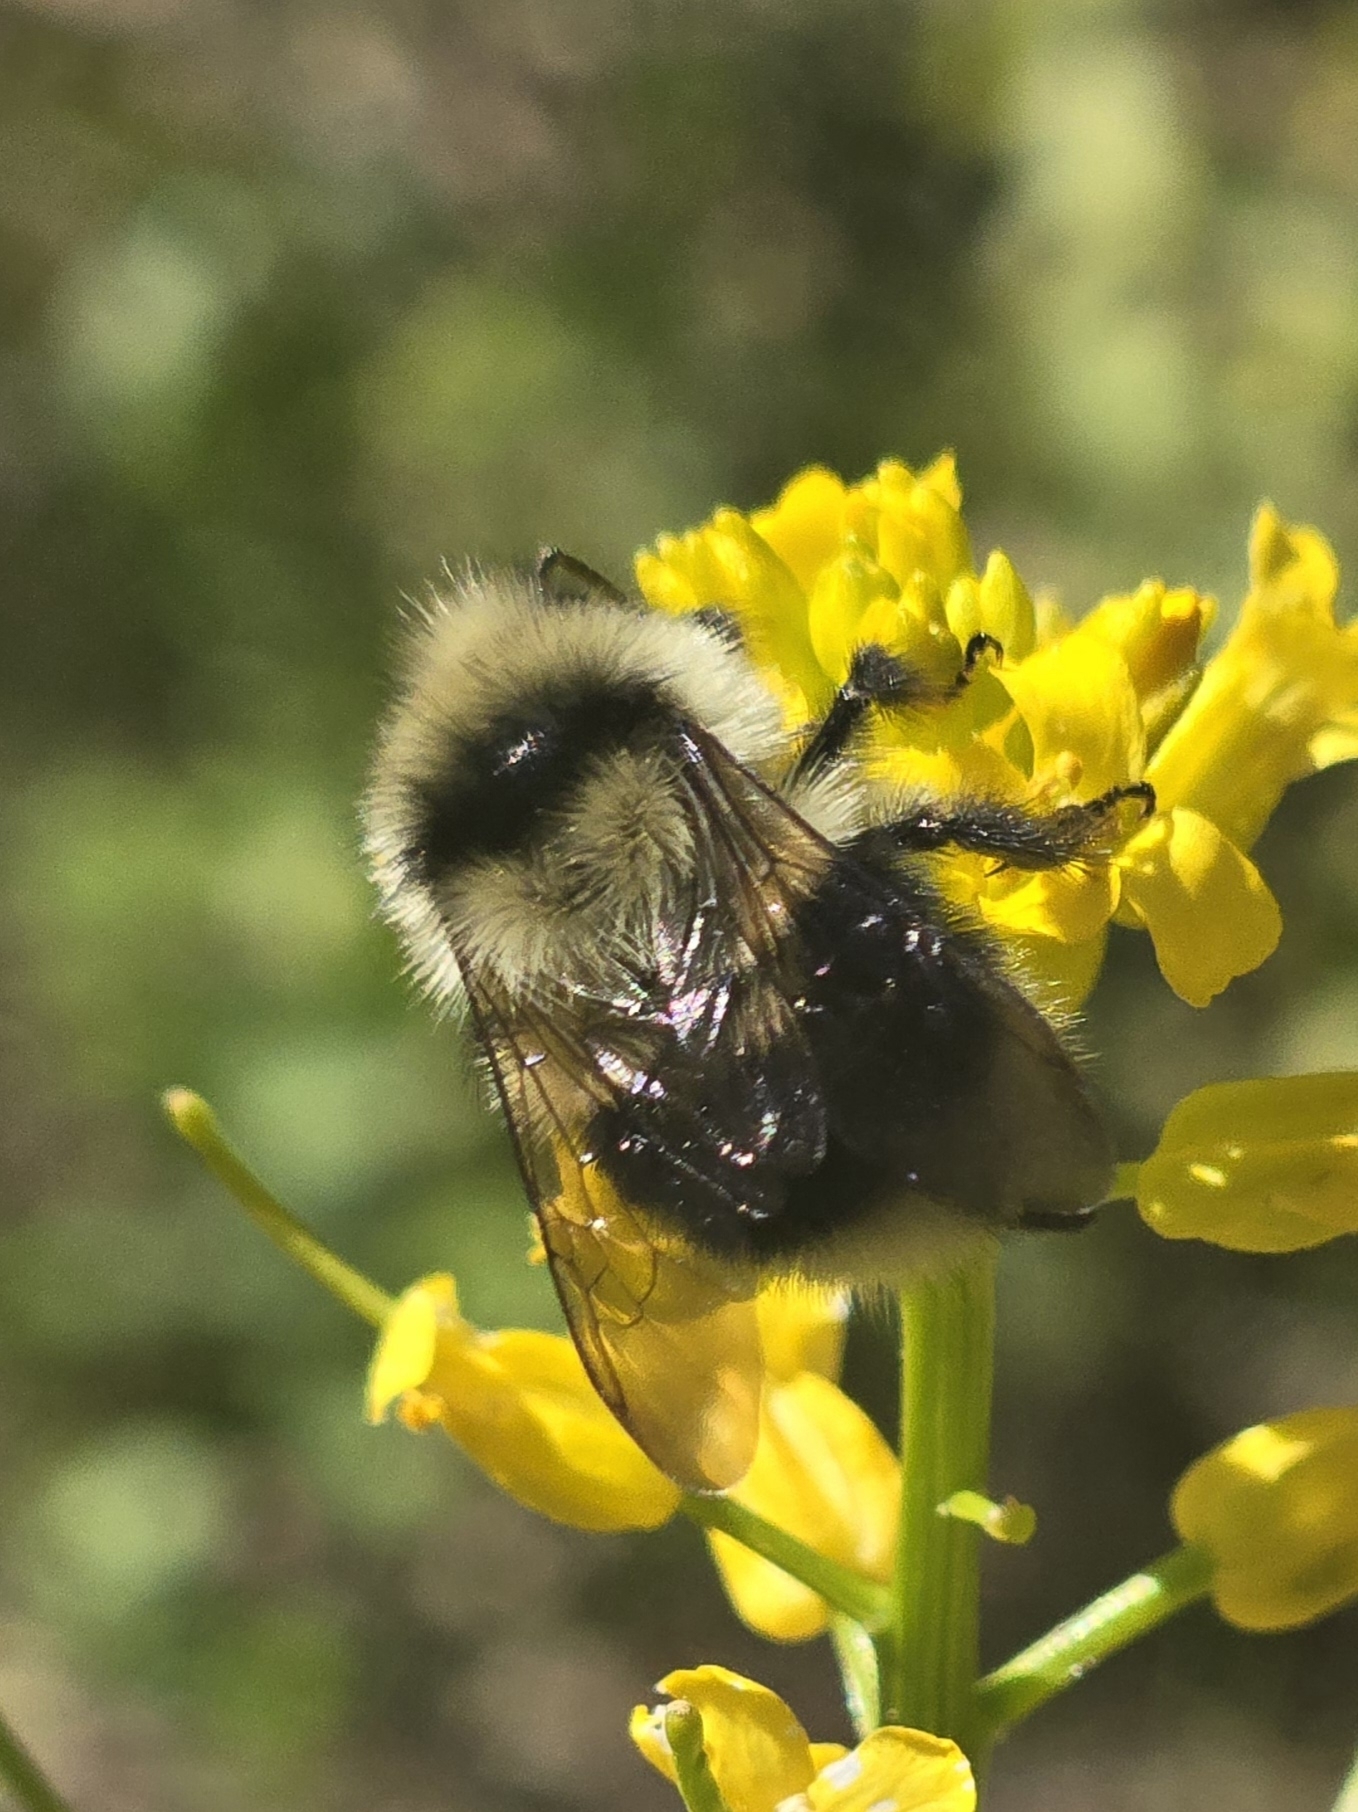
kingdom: Animalia
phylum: Arthropoda
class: Insecta
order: Hymenoptera
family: Apidae
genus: Bombus
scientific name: Bombus melanopygus
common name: Black tail bumble bee
